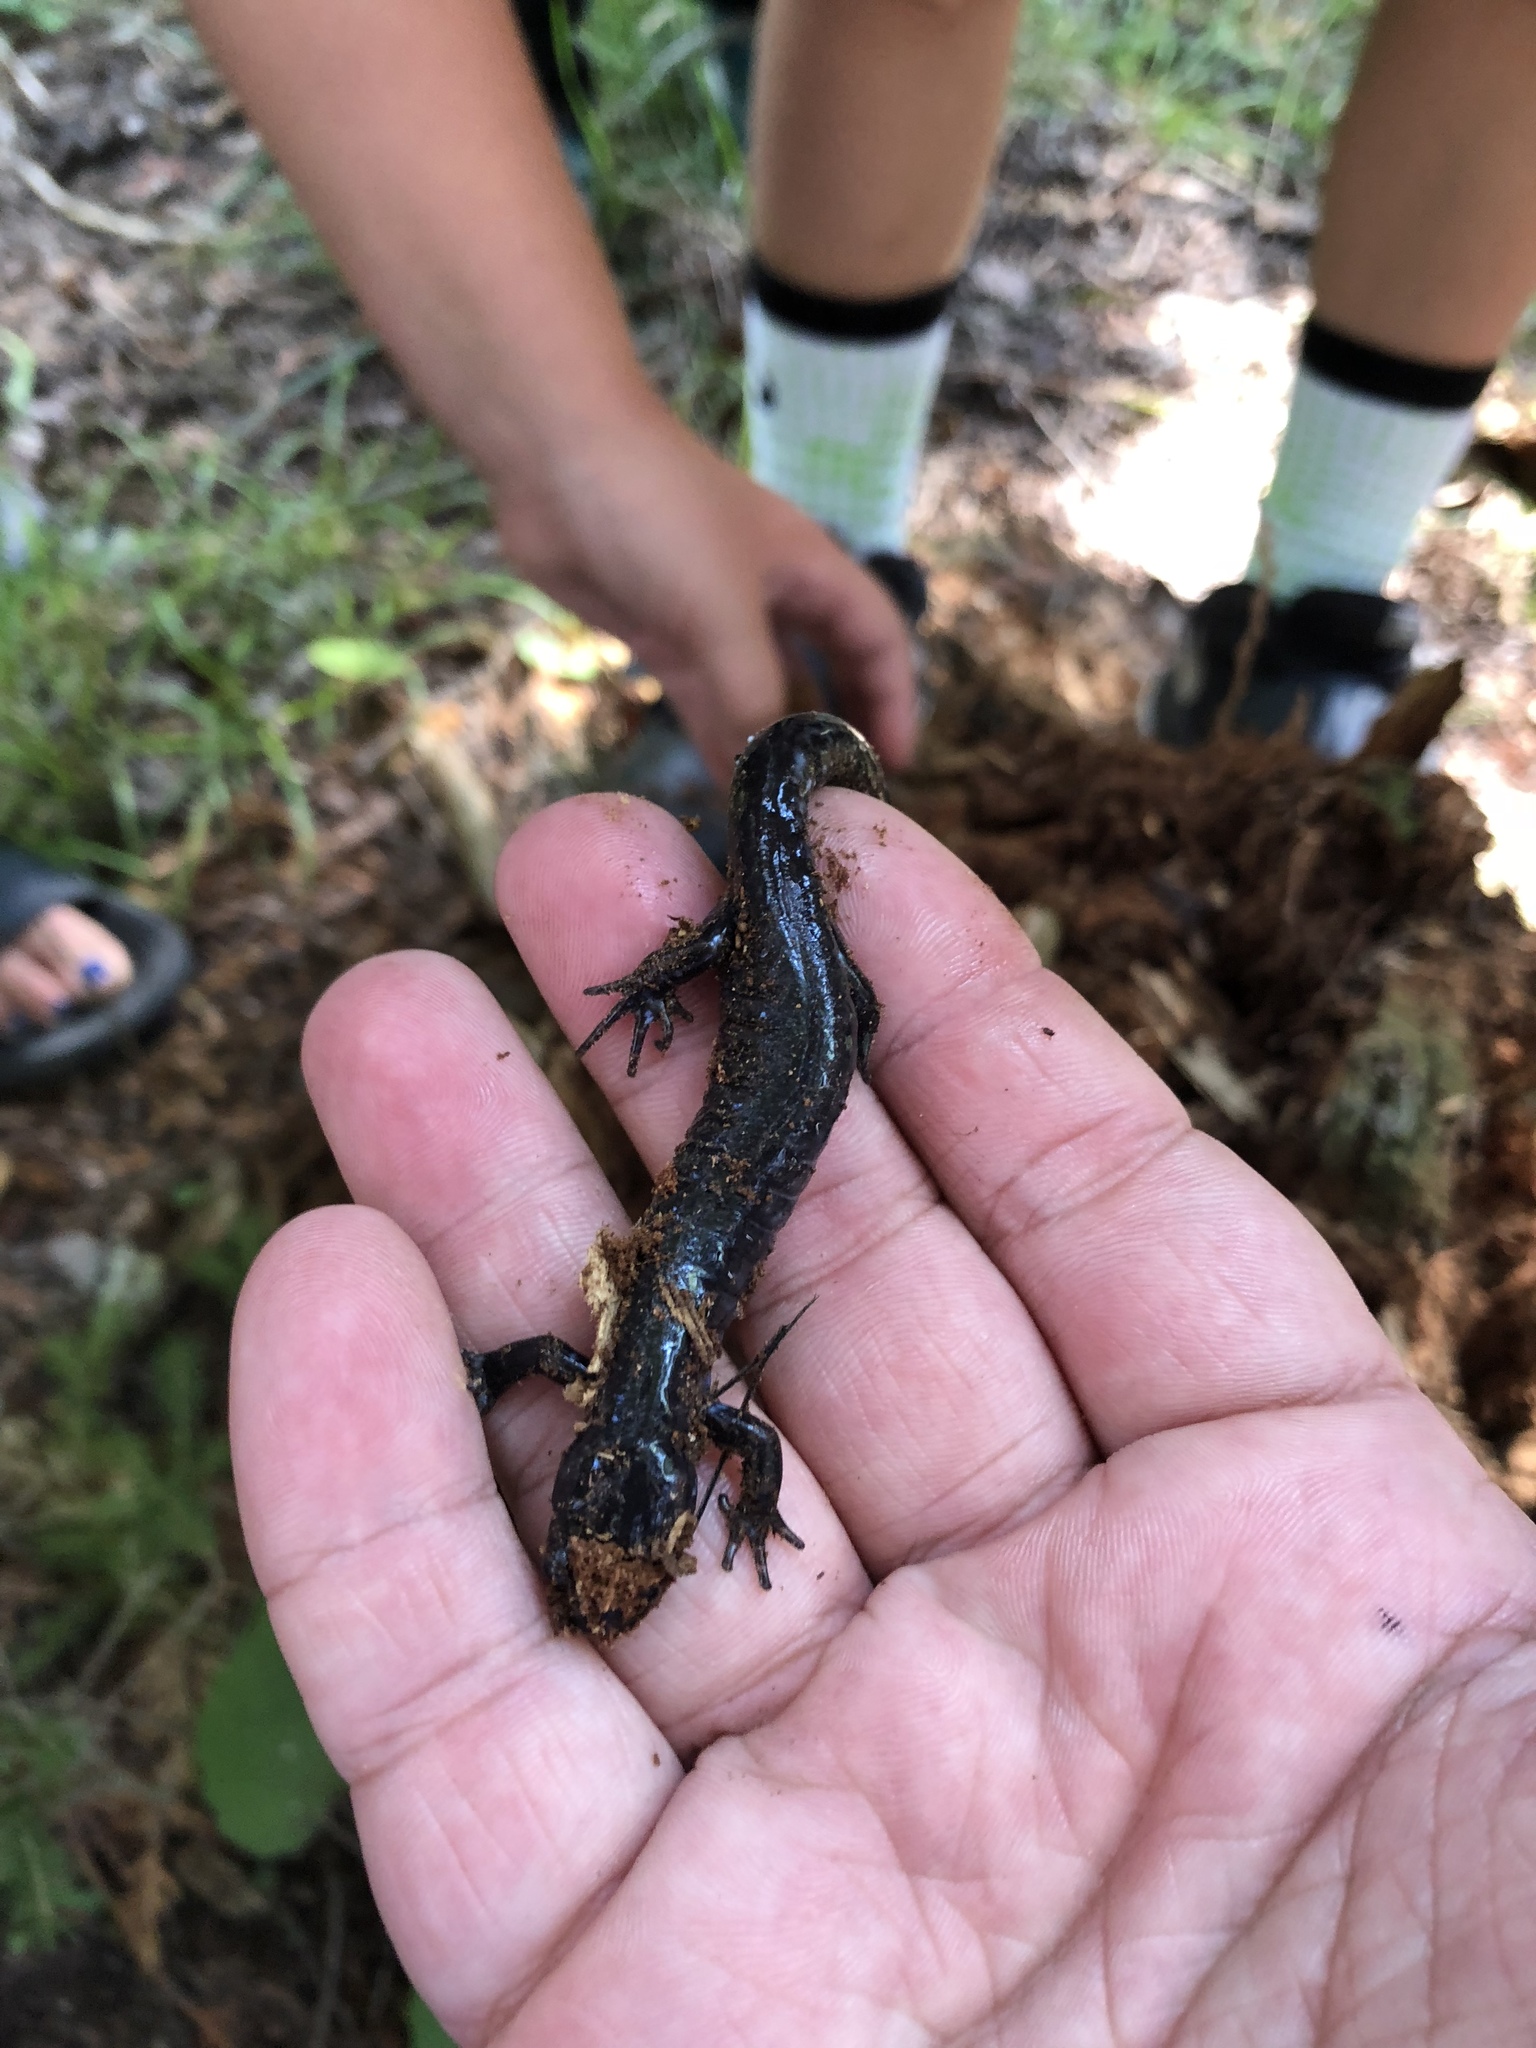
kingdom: Animalia
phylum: Chordata
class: Amphibia
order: Caudata
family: Ambystomatidae
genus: Ambystoma
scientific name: Ambystoma laterale
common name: Blue-spotted salamander
